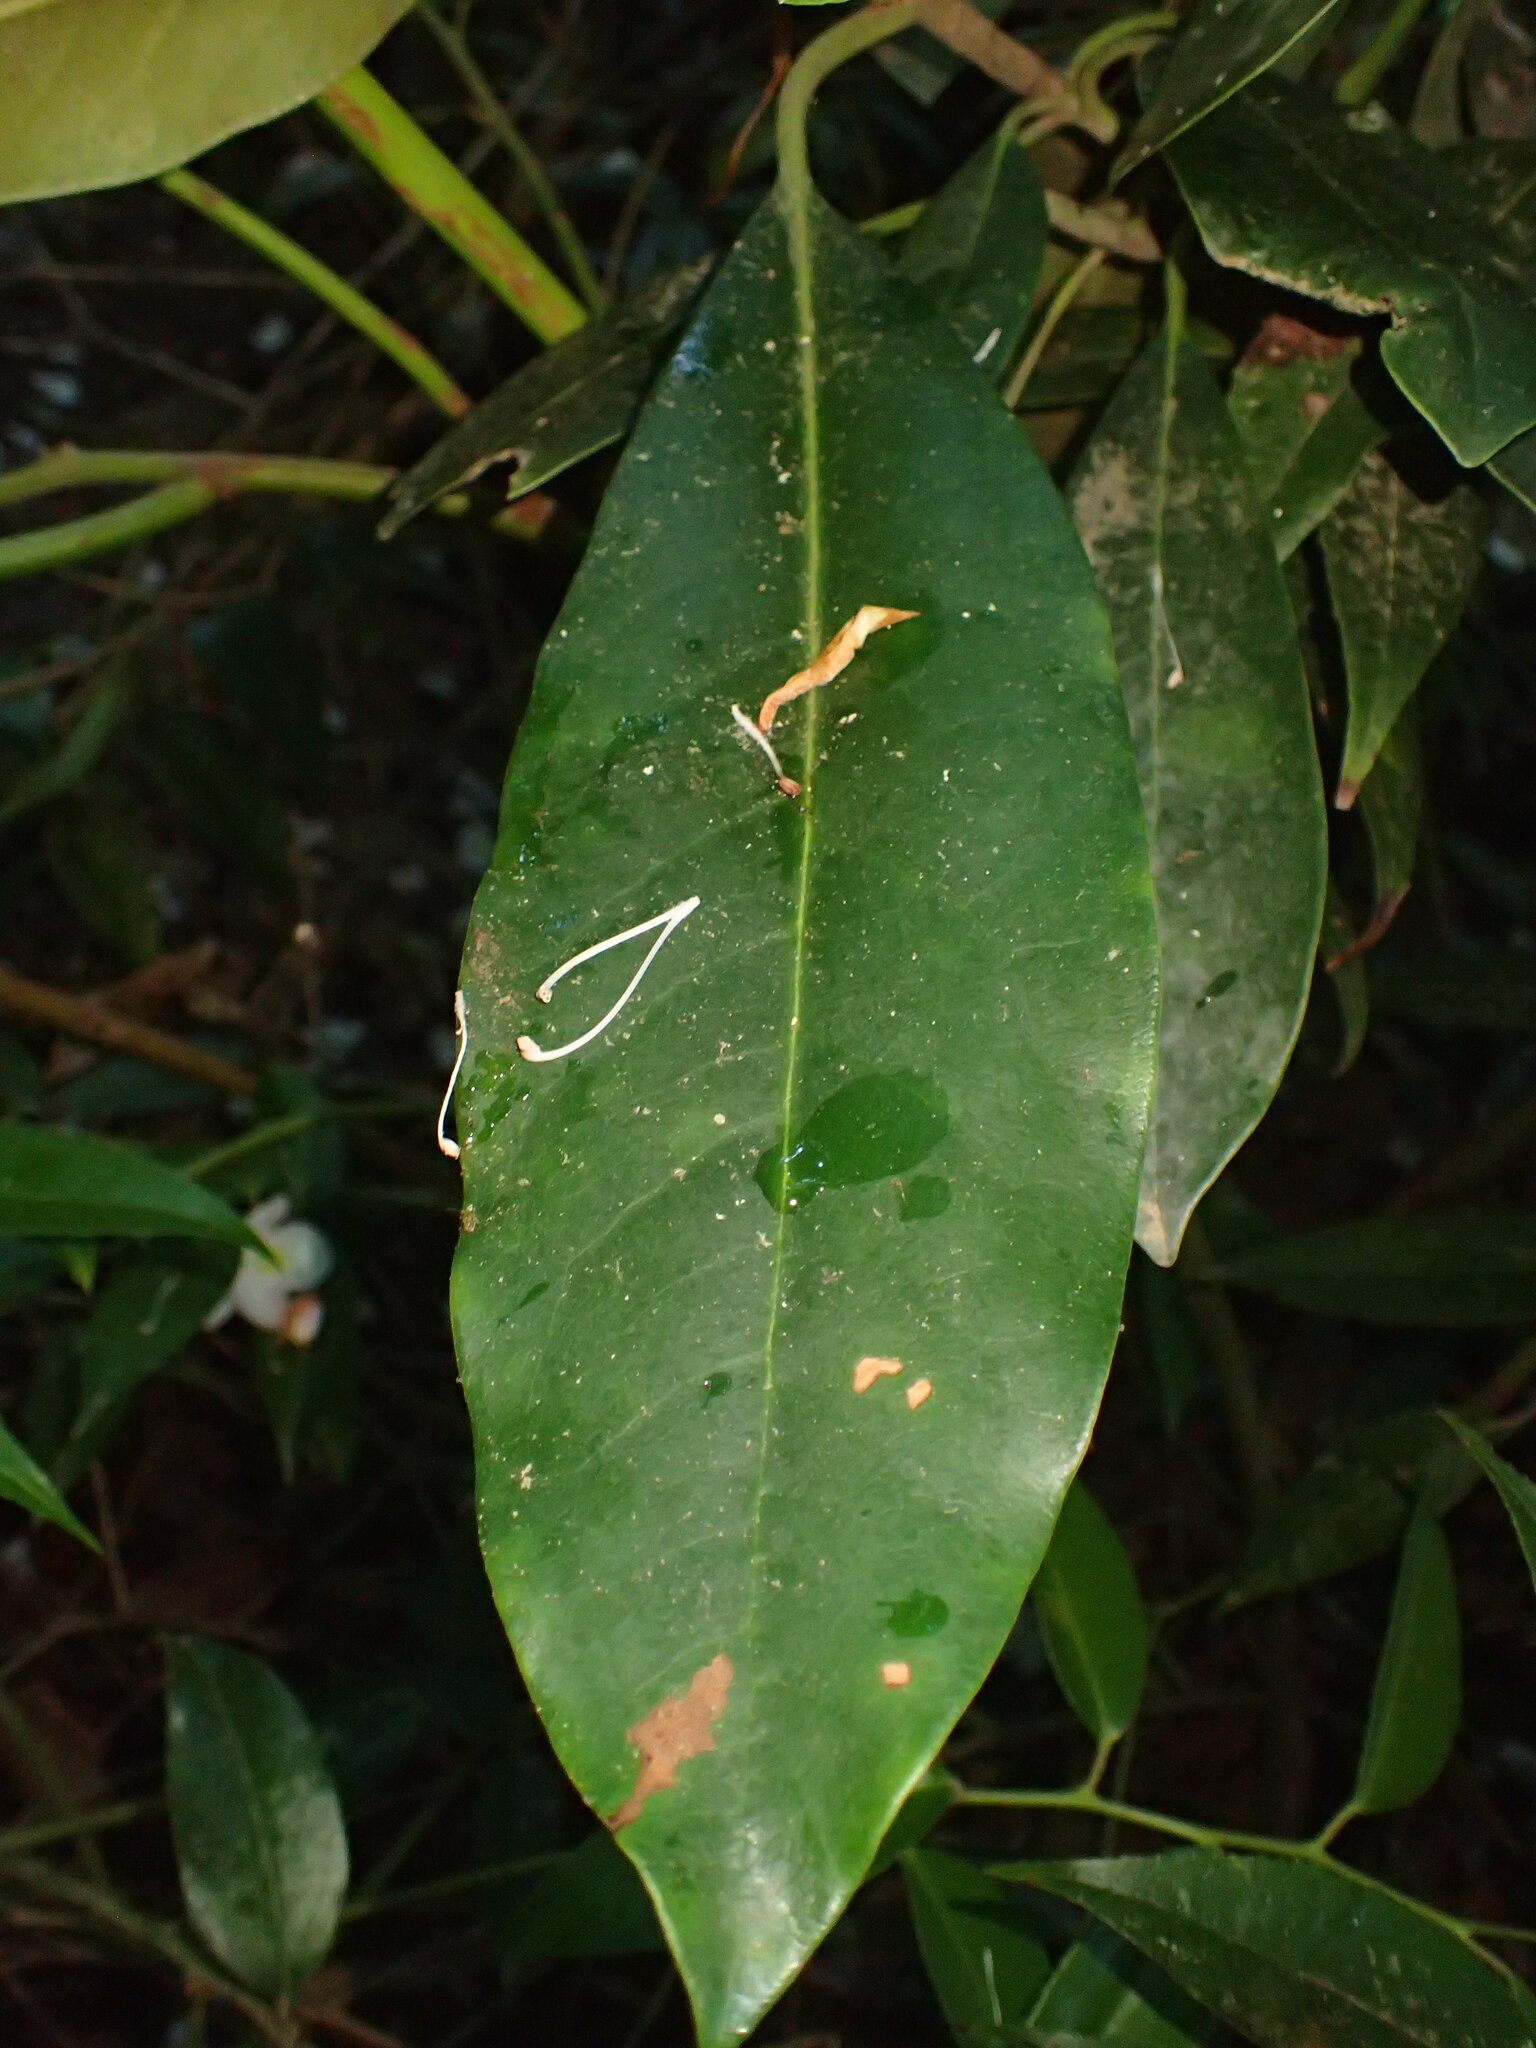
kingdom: Plantae
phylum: Tracheophyta
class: Magnoliopsida
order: Ericales
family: Ericaceae
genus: Rhododendron
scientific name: Rhododendron maximum
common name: Great rhododendron
